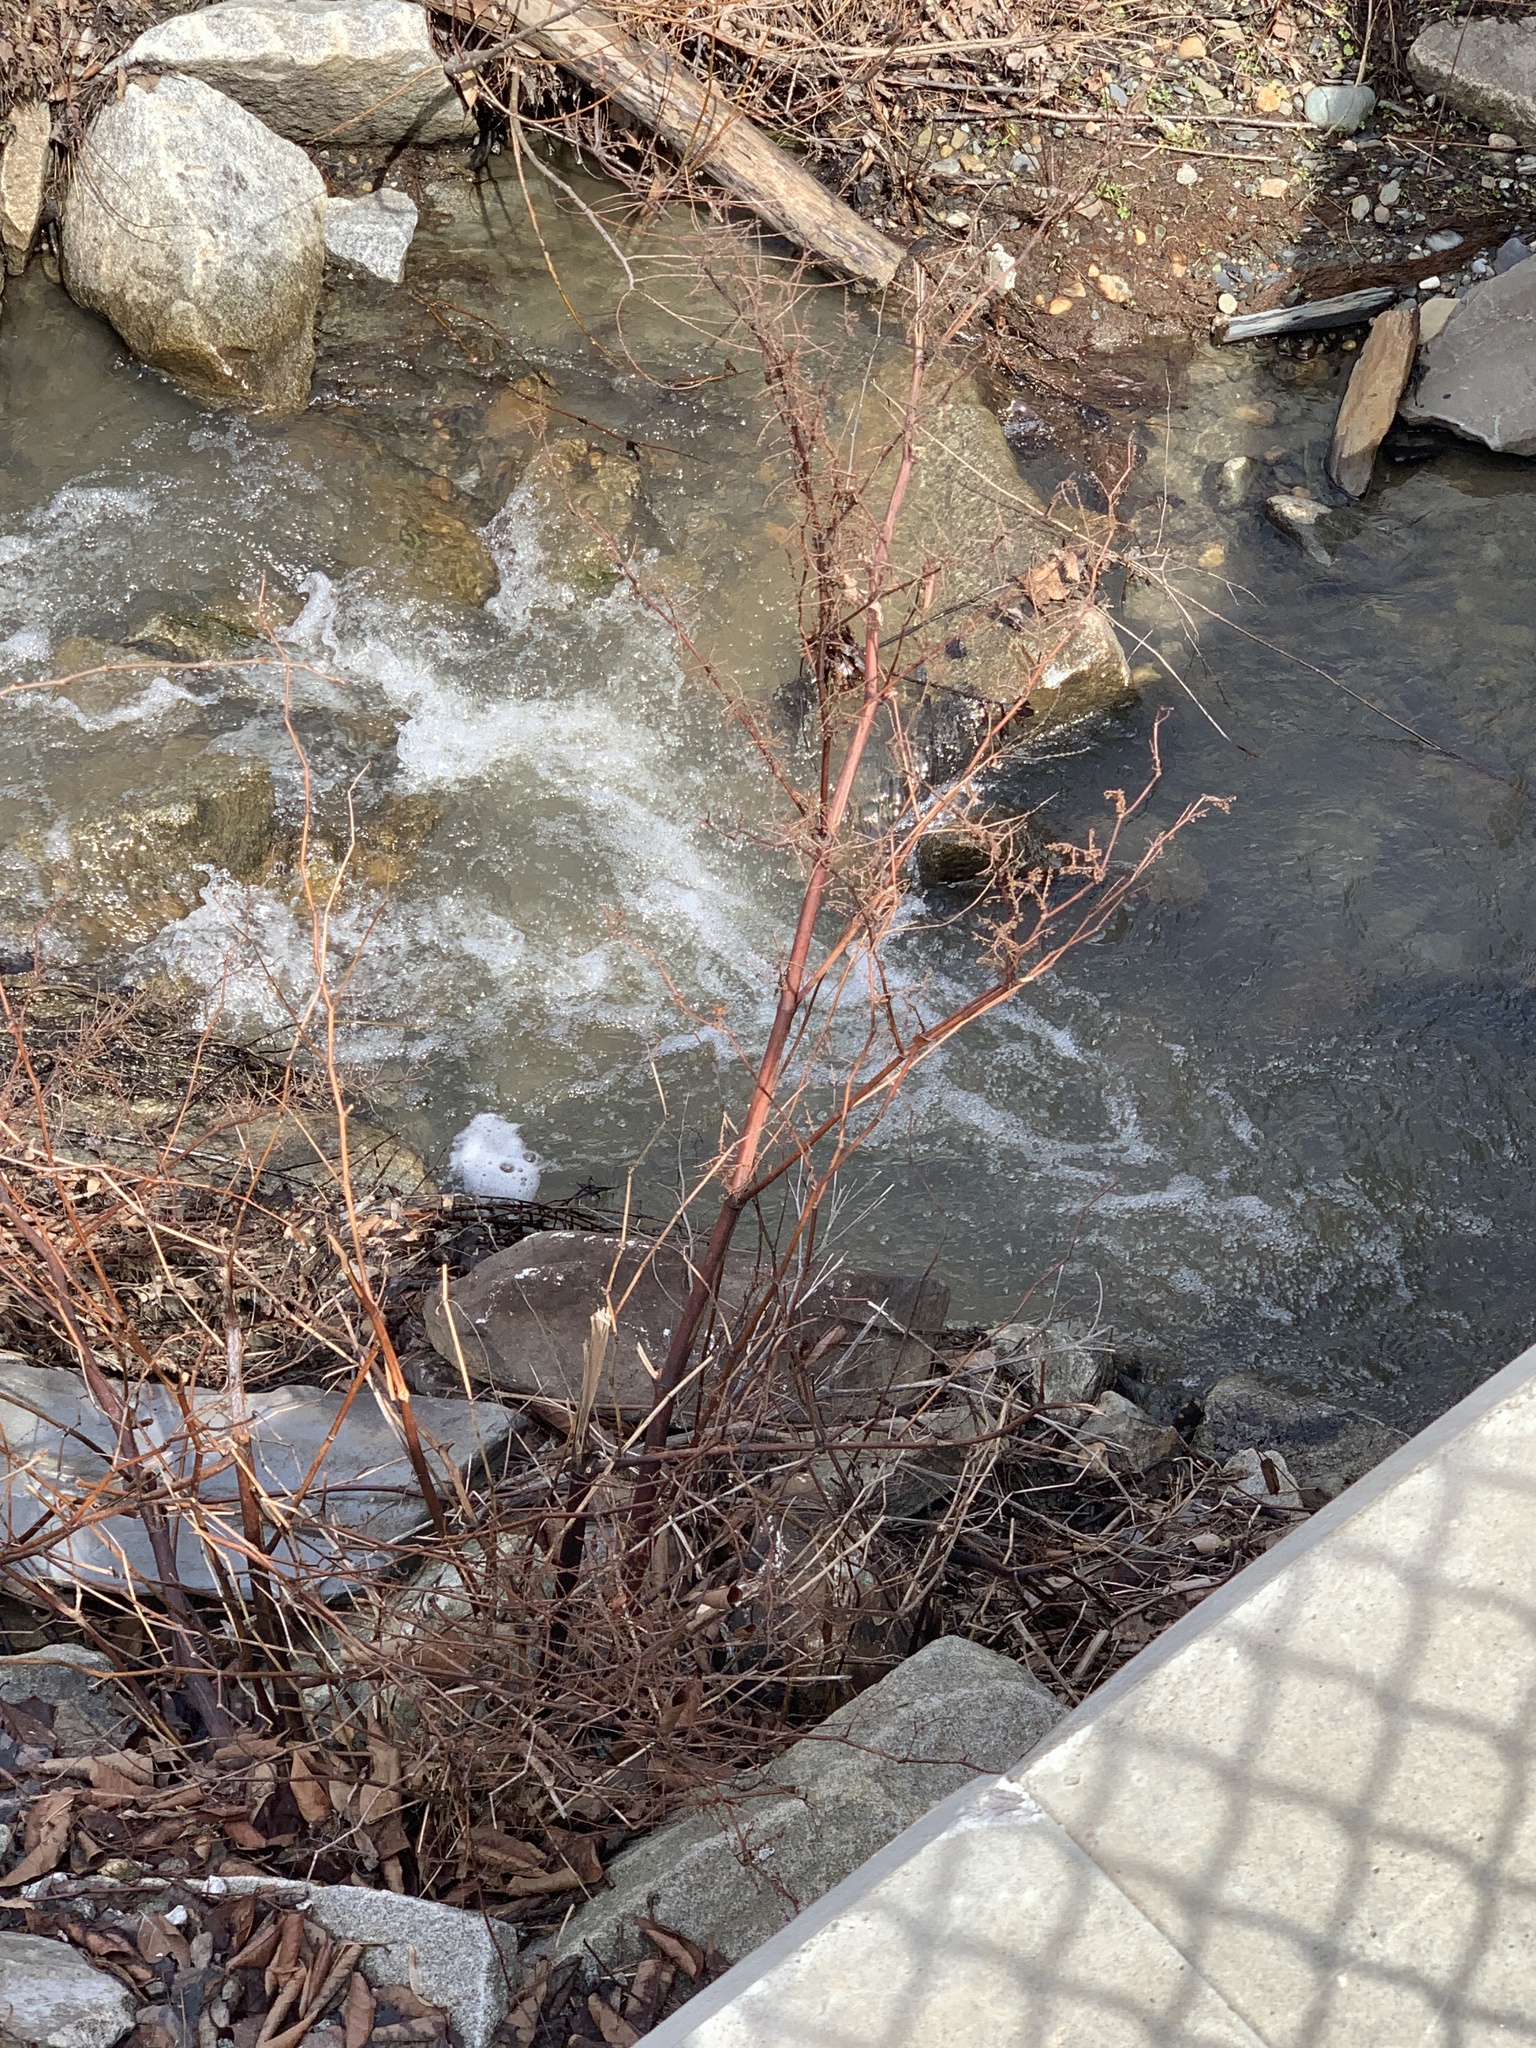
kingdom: Plantae
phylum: Tracheophyta
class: Magnoliopsida
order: Caryophyllales
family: Polygonaceae
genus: Reynoutria
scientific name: Reynoutria japonica
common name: Japanese knotweed
